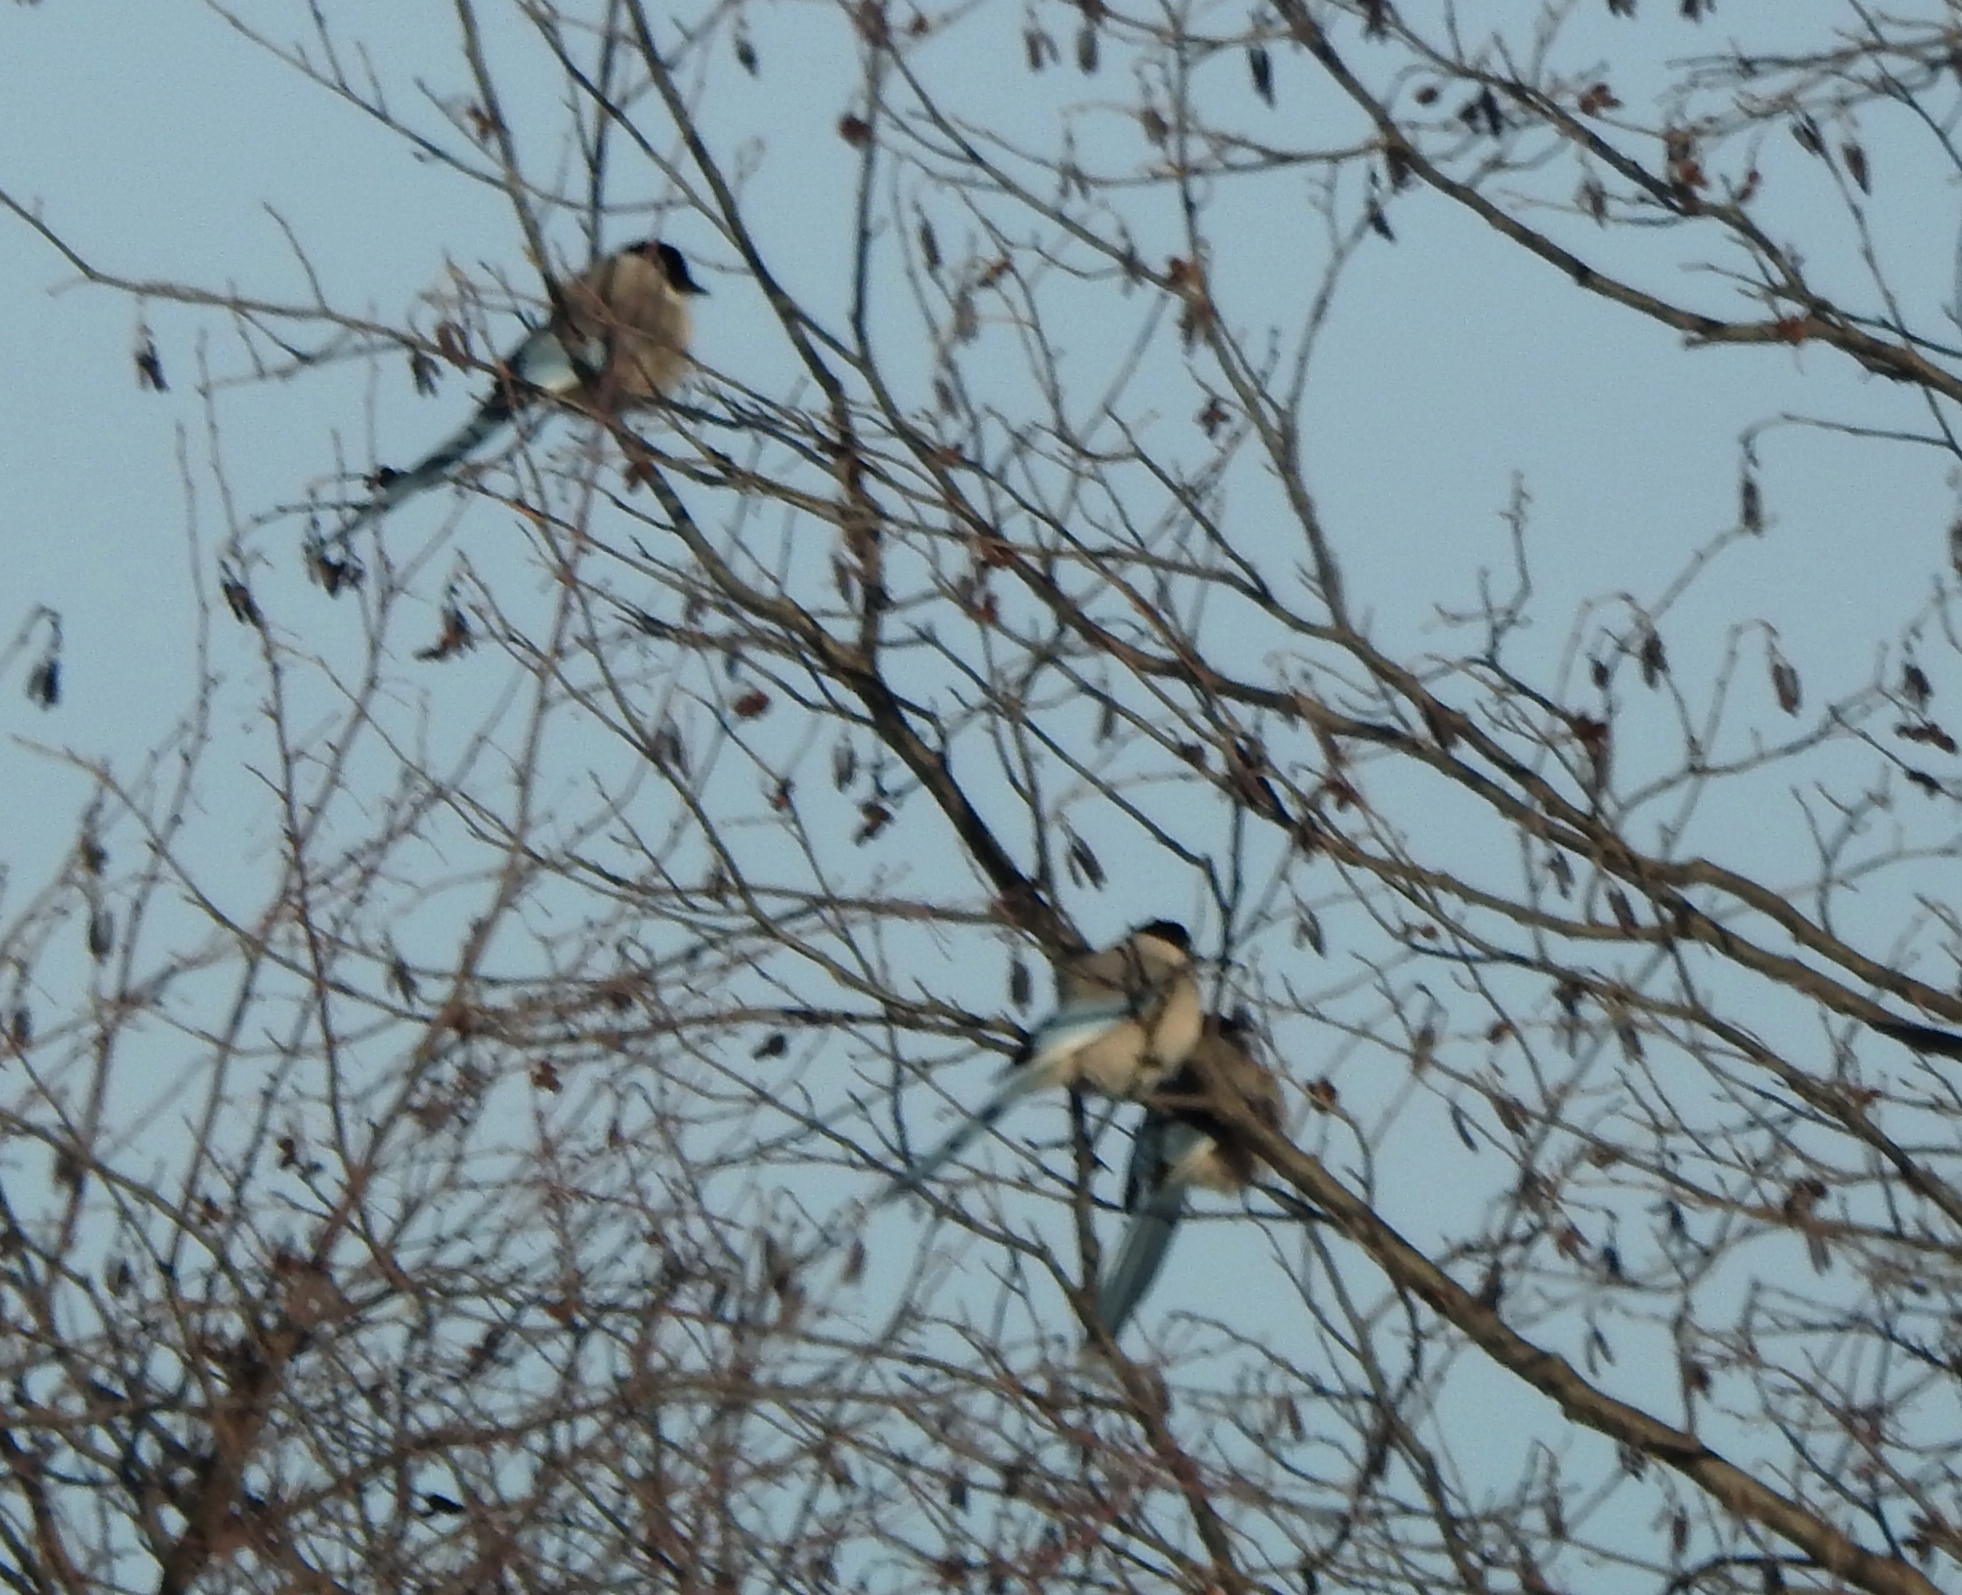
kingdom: Animalia
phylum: Chordata
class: Aves
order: Passeriformes
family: Corvidae
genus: Cyanopica
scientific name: Cyanopica cyanus
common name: Azure-winged magpie
